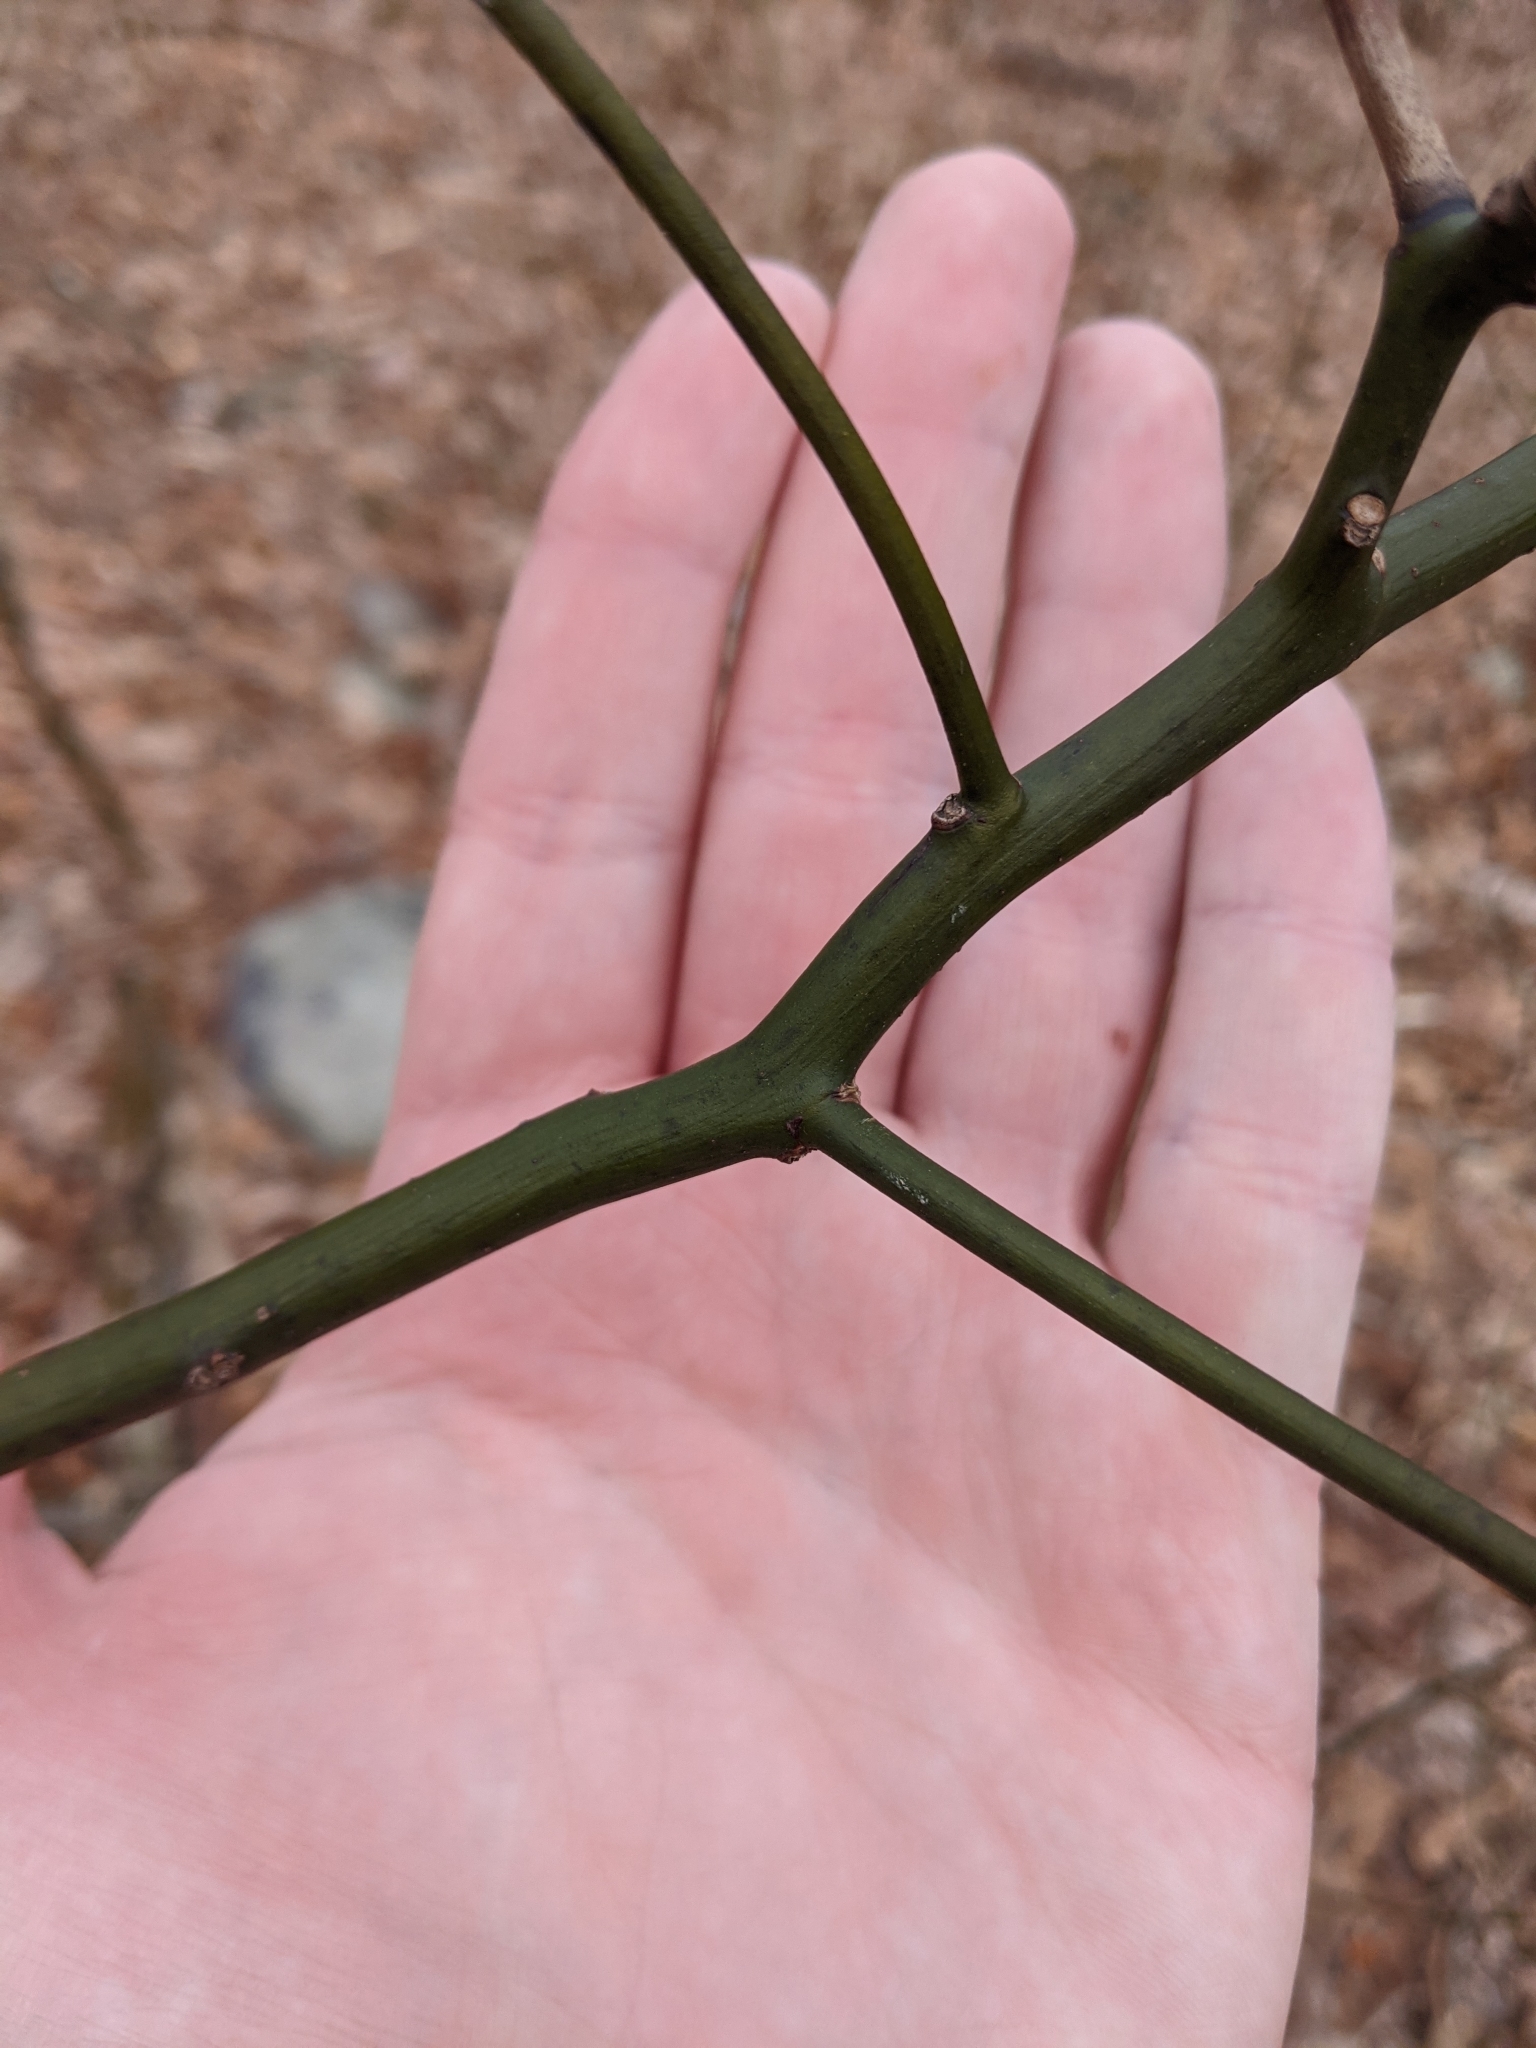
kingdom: Plantae
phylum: Tracheophyta
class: Magnoliopsida
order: Laurales
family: Lauraceae
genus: Sassafras
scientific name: Sassafras albidum
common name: Sassafras
